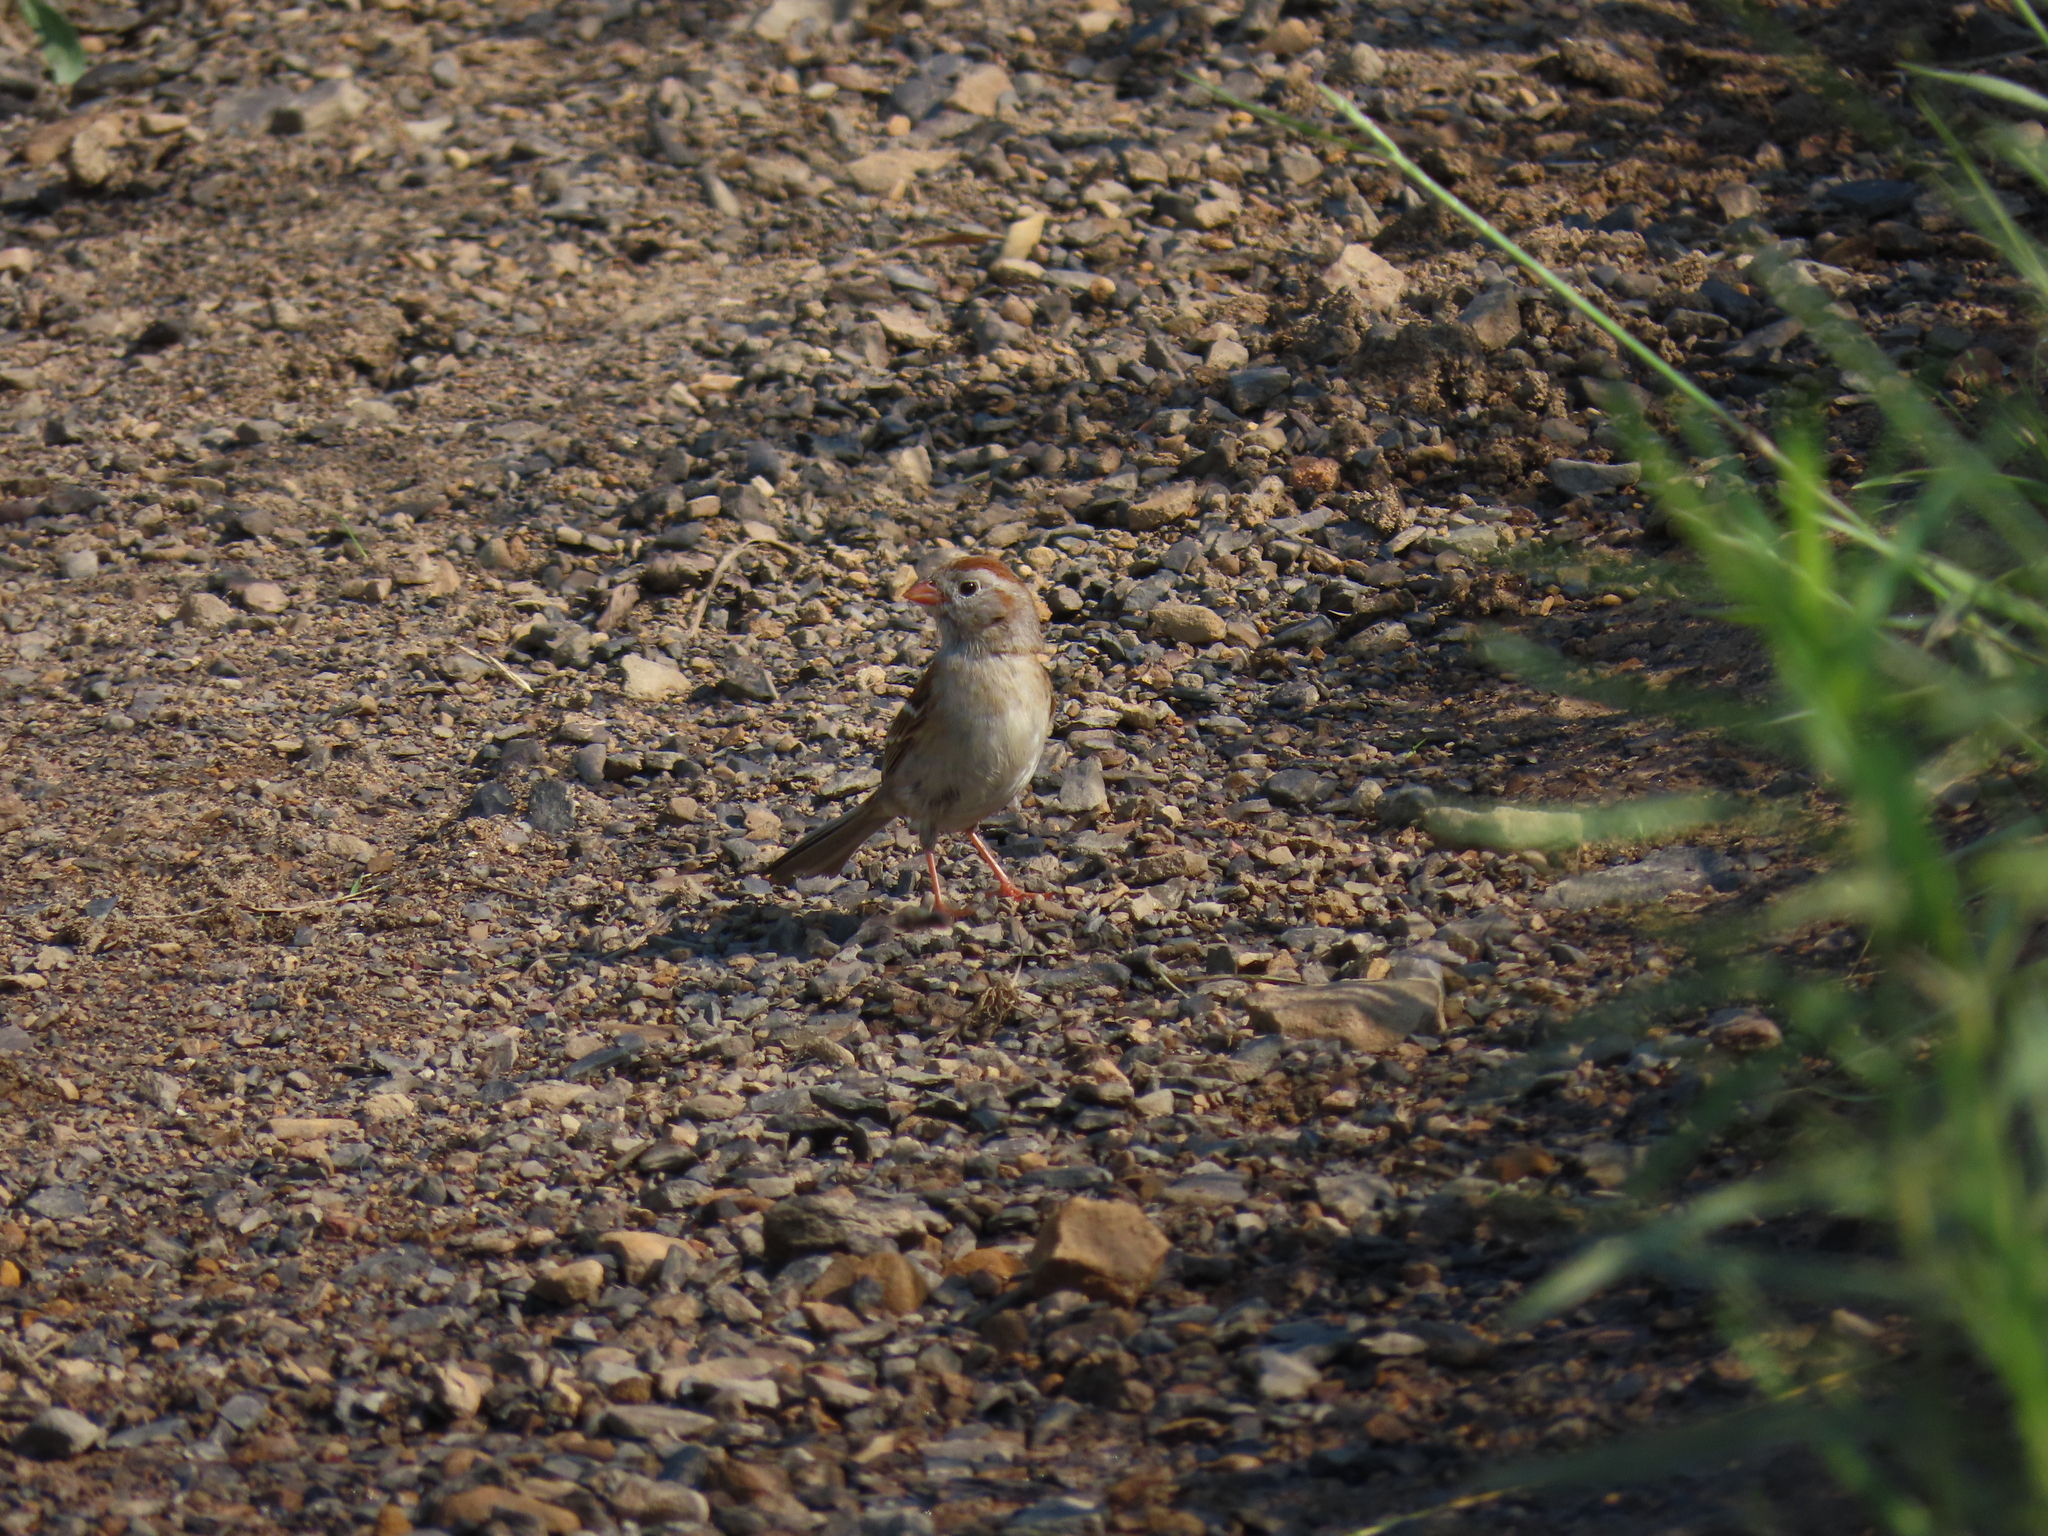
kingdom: Animalia
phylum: Chordata
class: Aves
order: Passeriformes
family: Passerellidae
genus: Spizella
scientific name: Spizella pusilla
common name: Field sparrow
